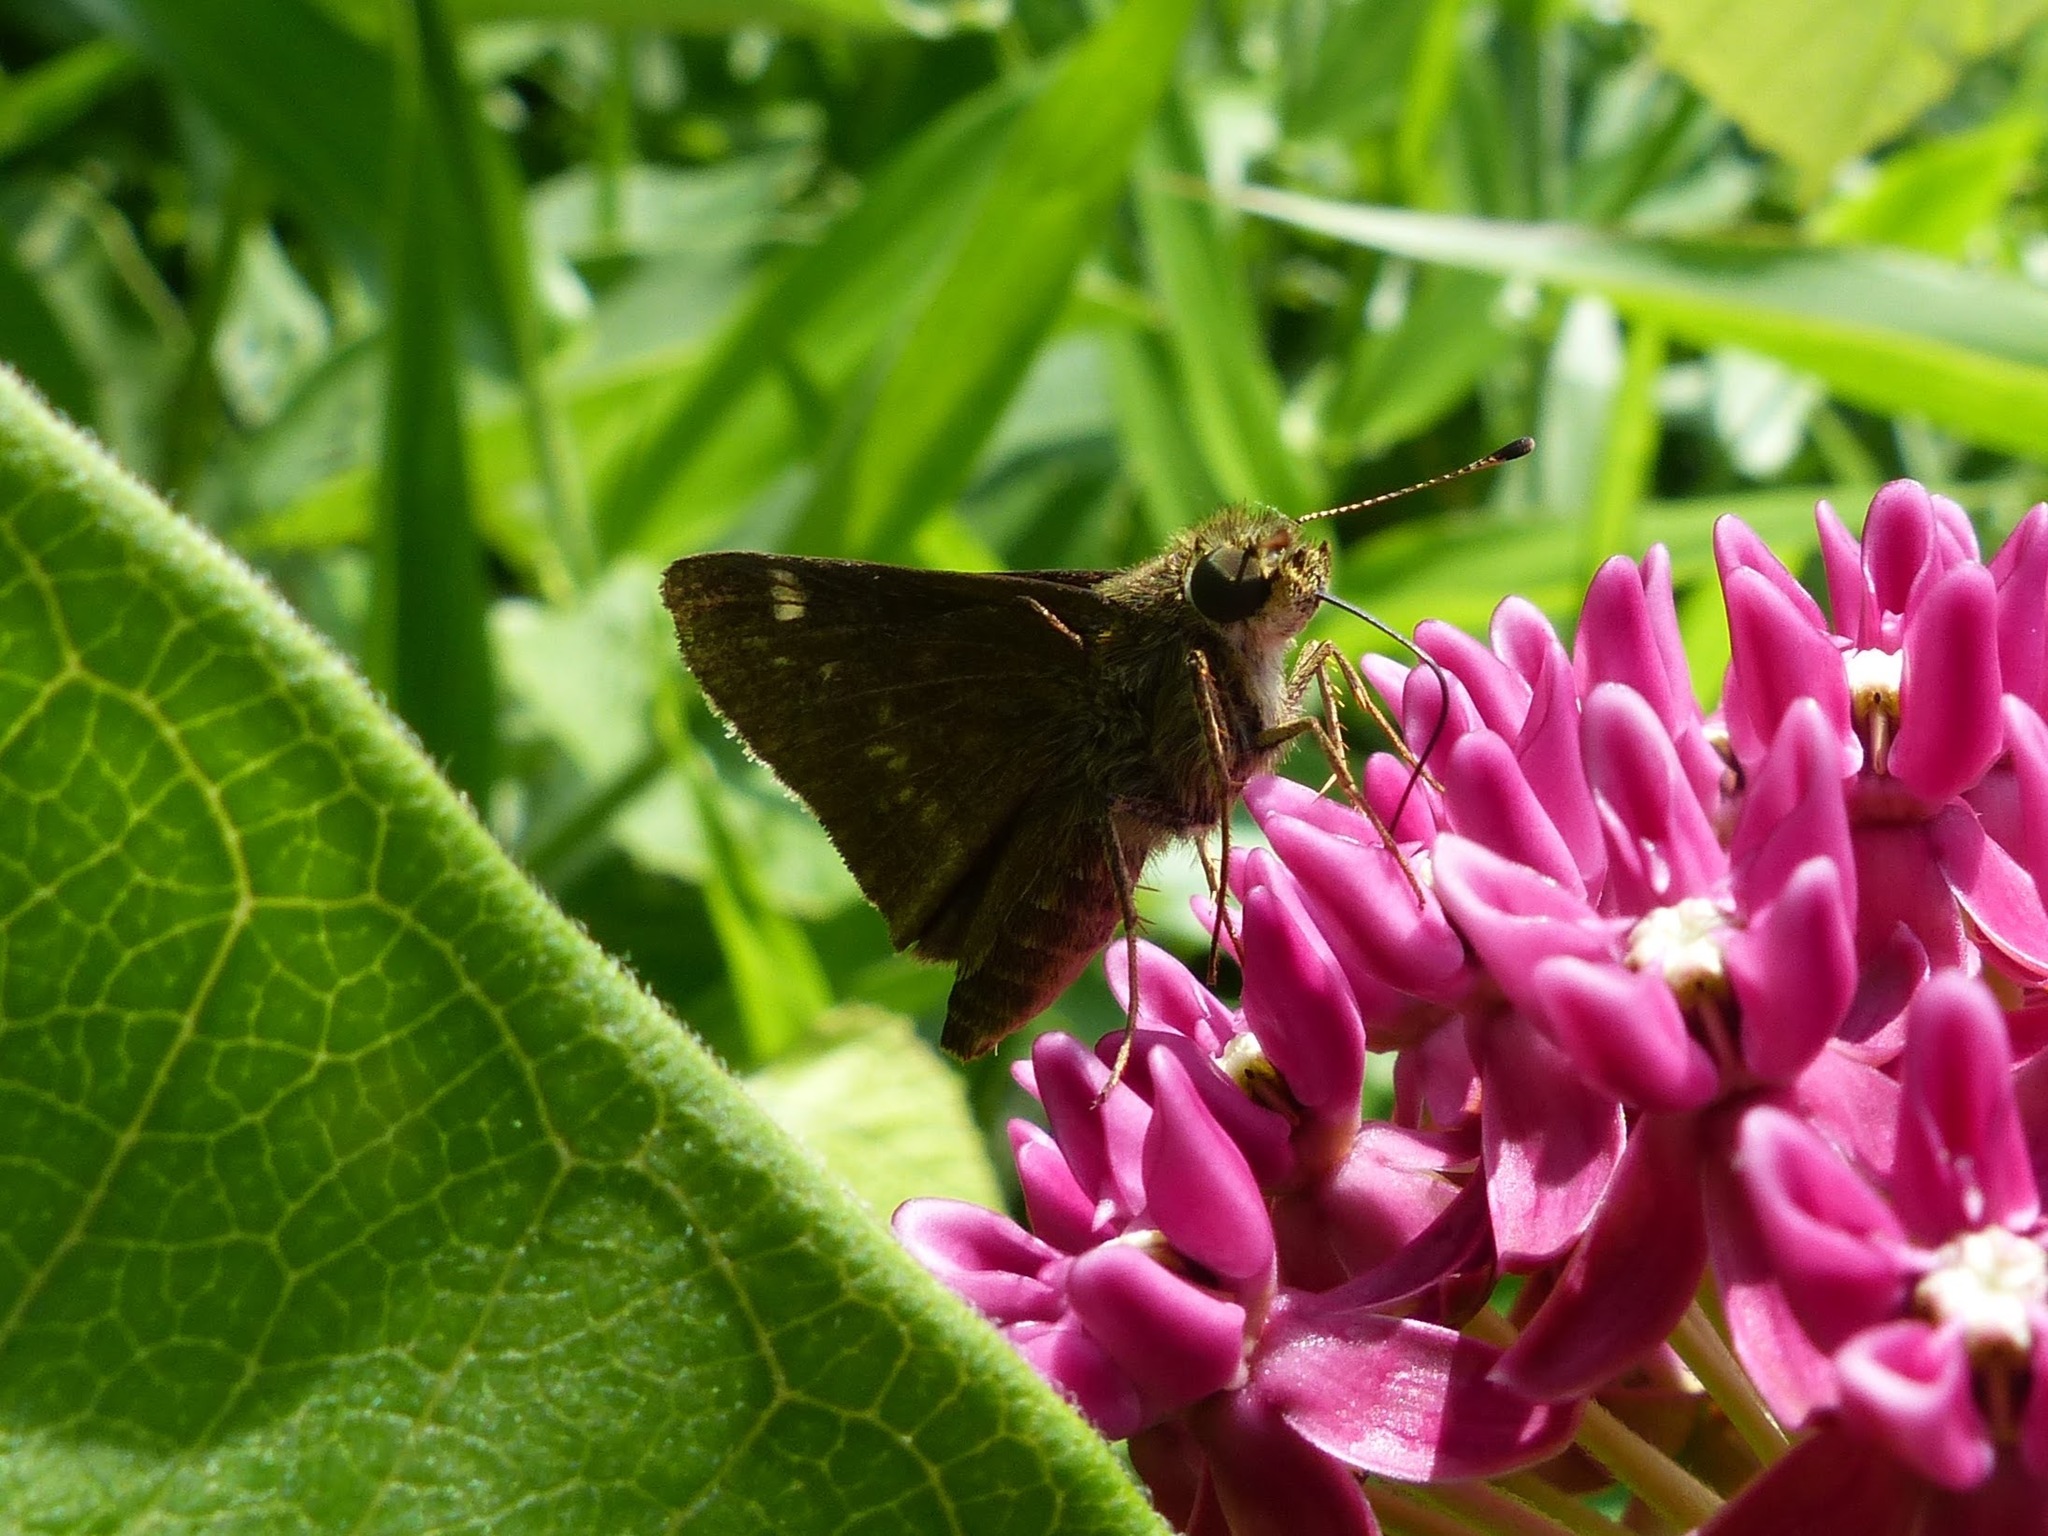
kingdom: Animalia
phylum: Arthropoda
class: Insecta
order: Lepidoptera
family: Hesperiidae
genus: Vernia
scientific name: Vernia verna
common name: Little glassywing
